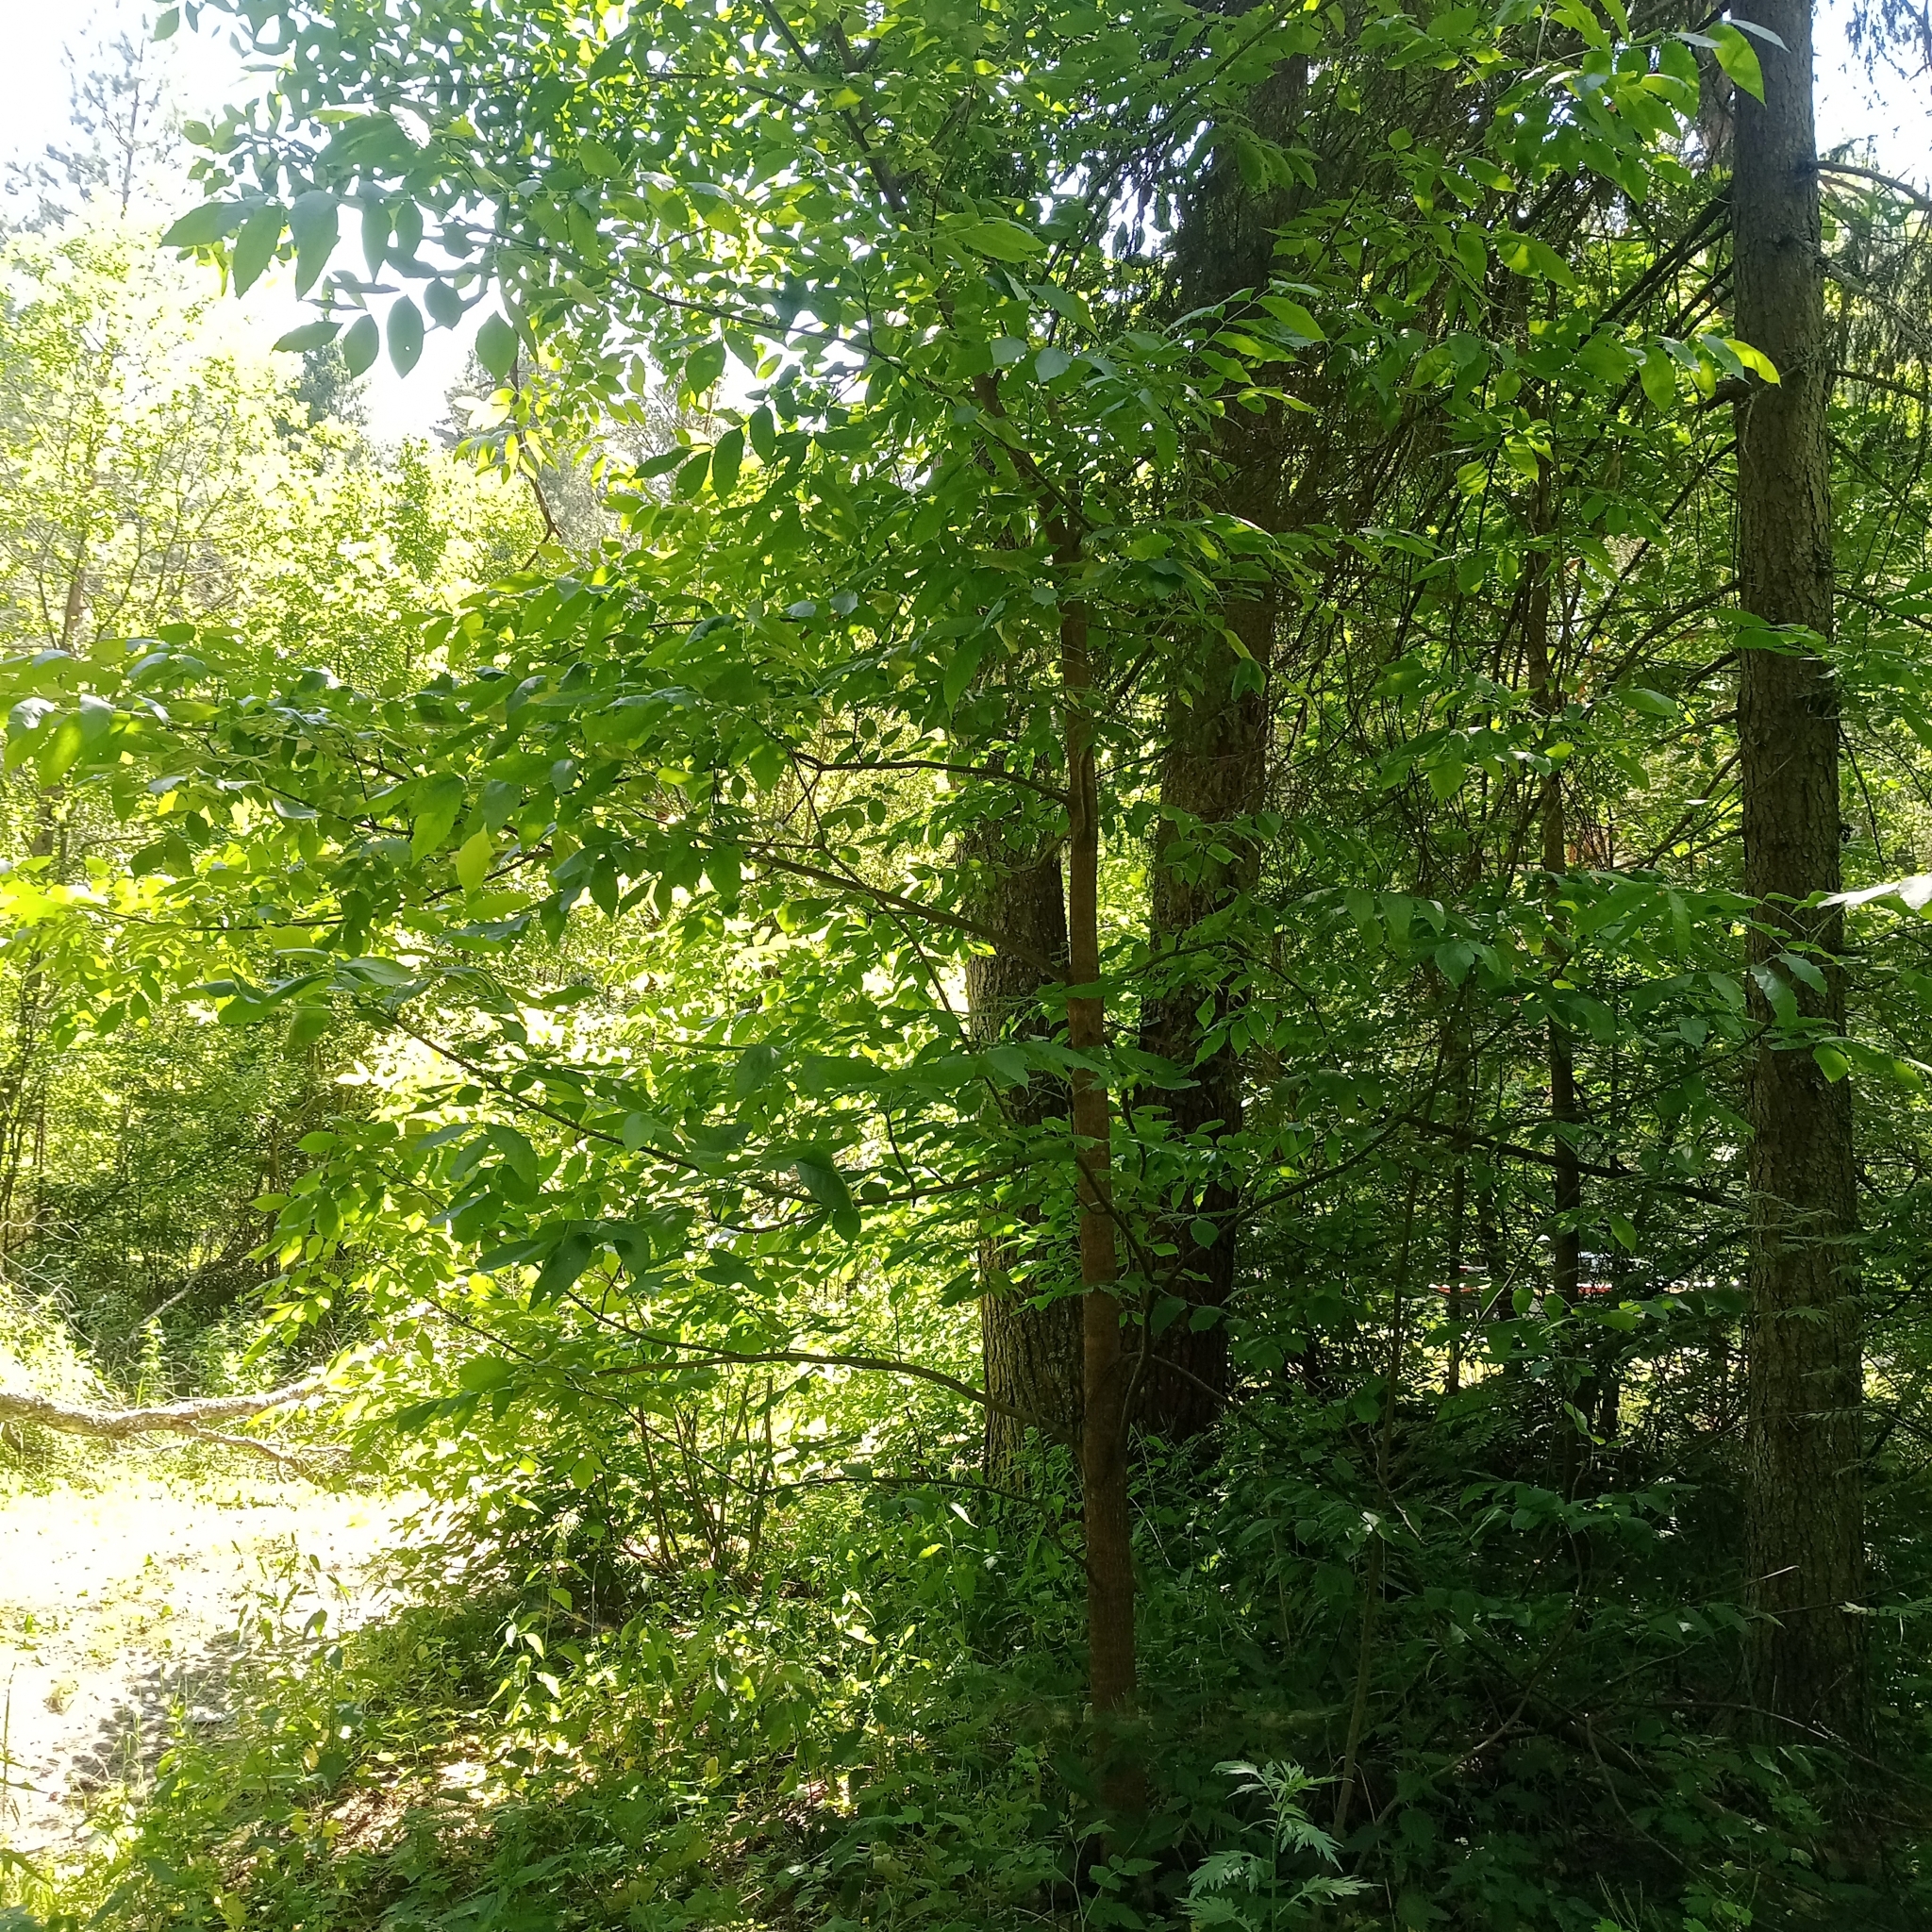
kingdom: Plantae
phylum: Tracheophyta
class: Magnoliopsida
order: Lamiales
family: Oleaceae
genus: Fraxinus
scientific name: Fraxinus pennsylvanica
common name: Green ash
